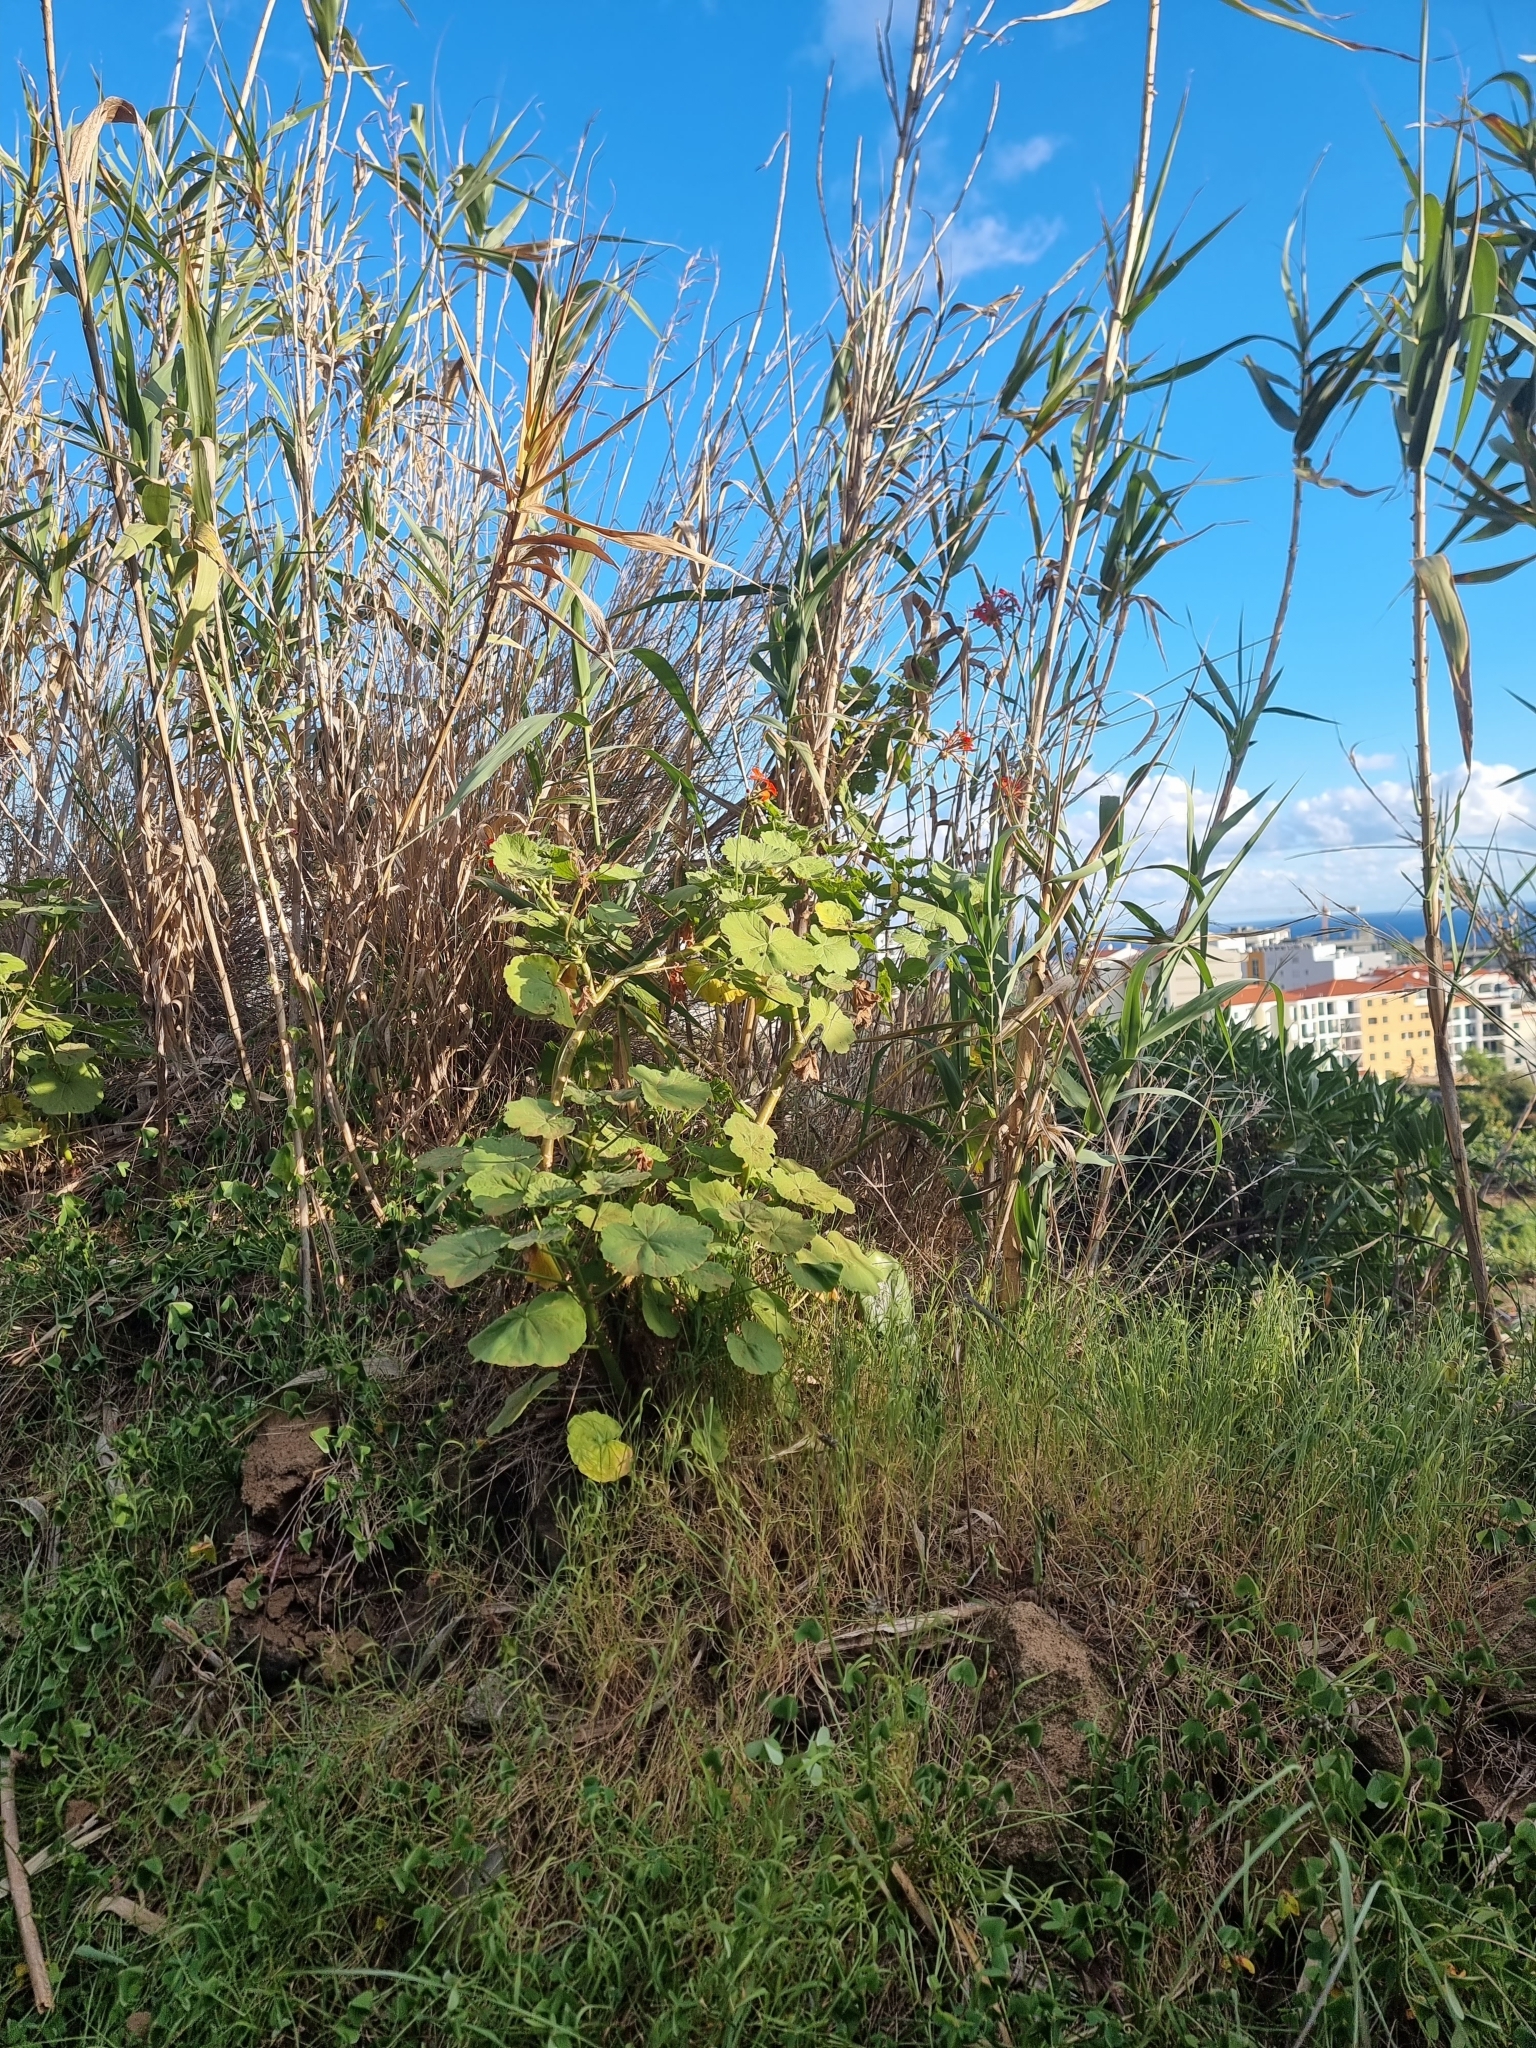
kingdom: Plantae
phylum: Tracheophyta
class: Magnoliopsida
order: Geraniales
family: Geraniaceae
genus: Pelargonium
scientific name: Pelargonium hybridum
